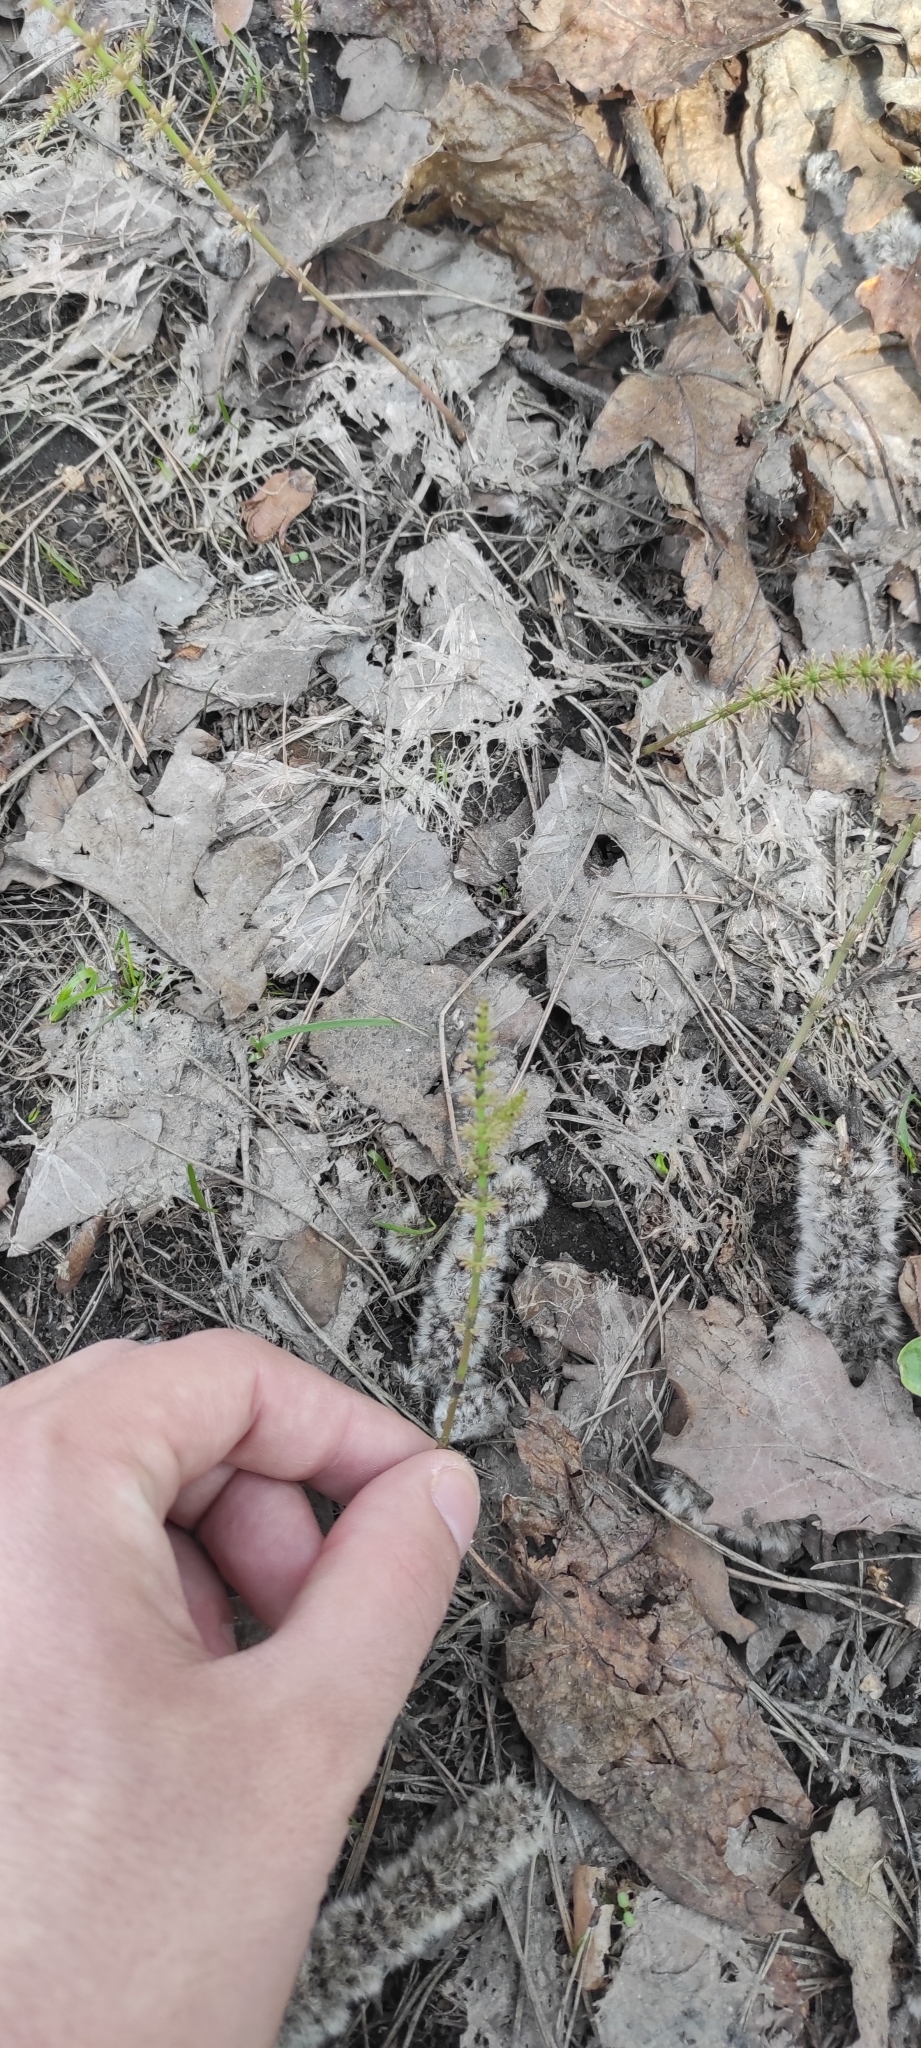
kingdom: Plantae
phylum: Tracheophyta
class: Polypodiopsida
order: Equisetales
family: Equisetaceae
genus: Equisetum
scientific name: Equisetum pratense
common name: Meadow horsetail
